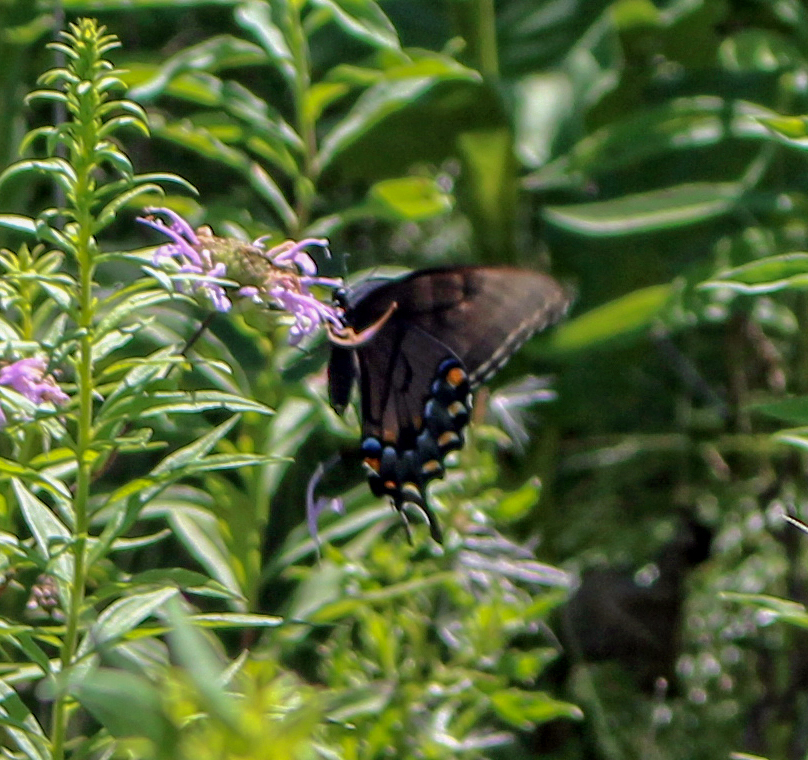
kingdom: Animalia
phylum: Arthropoda
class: Insecta
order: Lepidoptera
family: Papilionidae
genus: Papilio
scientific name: Papilio glaucus
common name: Tiger swallowtail
